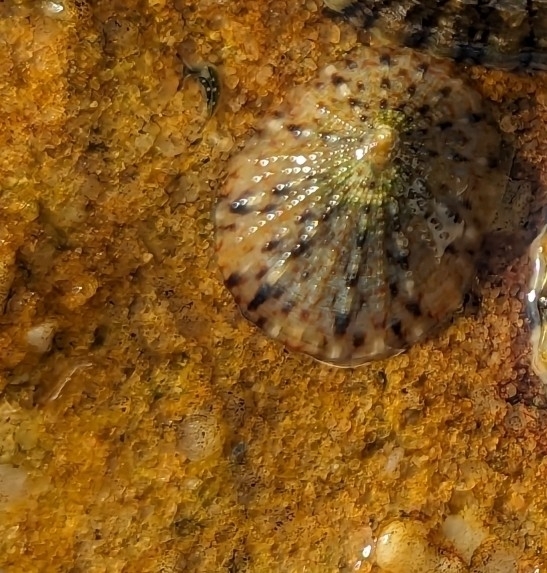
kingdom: Animalia
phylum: Mollusca
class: Gastropoda
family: Nacellidae
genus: Cellana
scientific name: Cellana tramoserica
